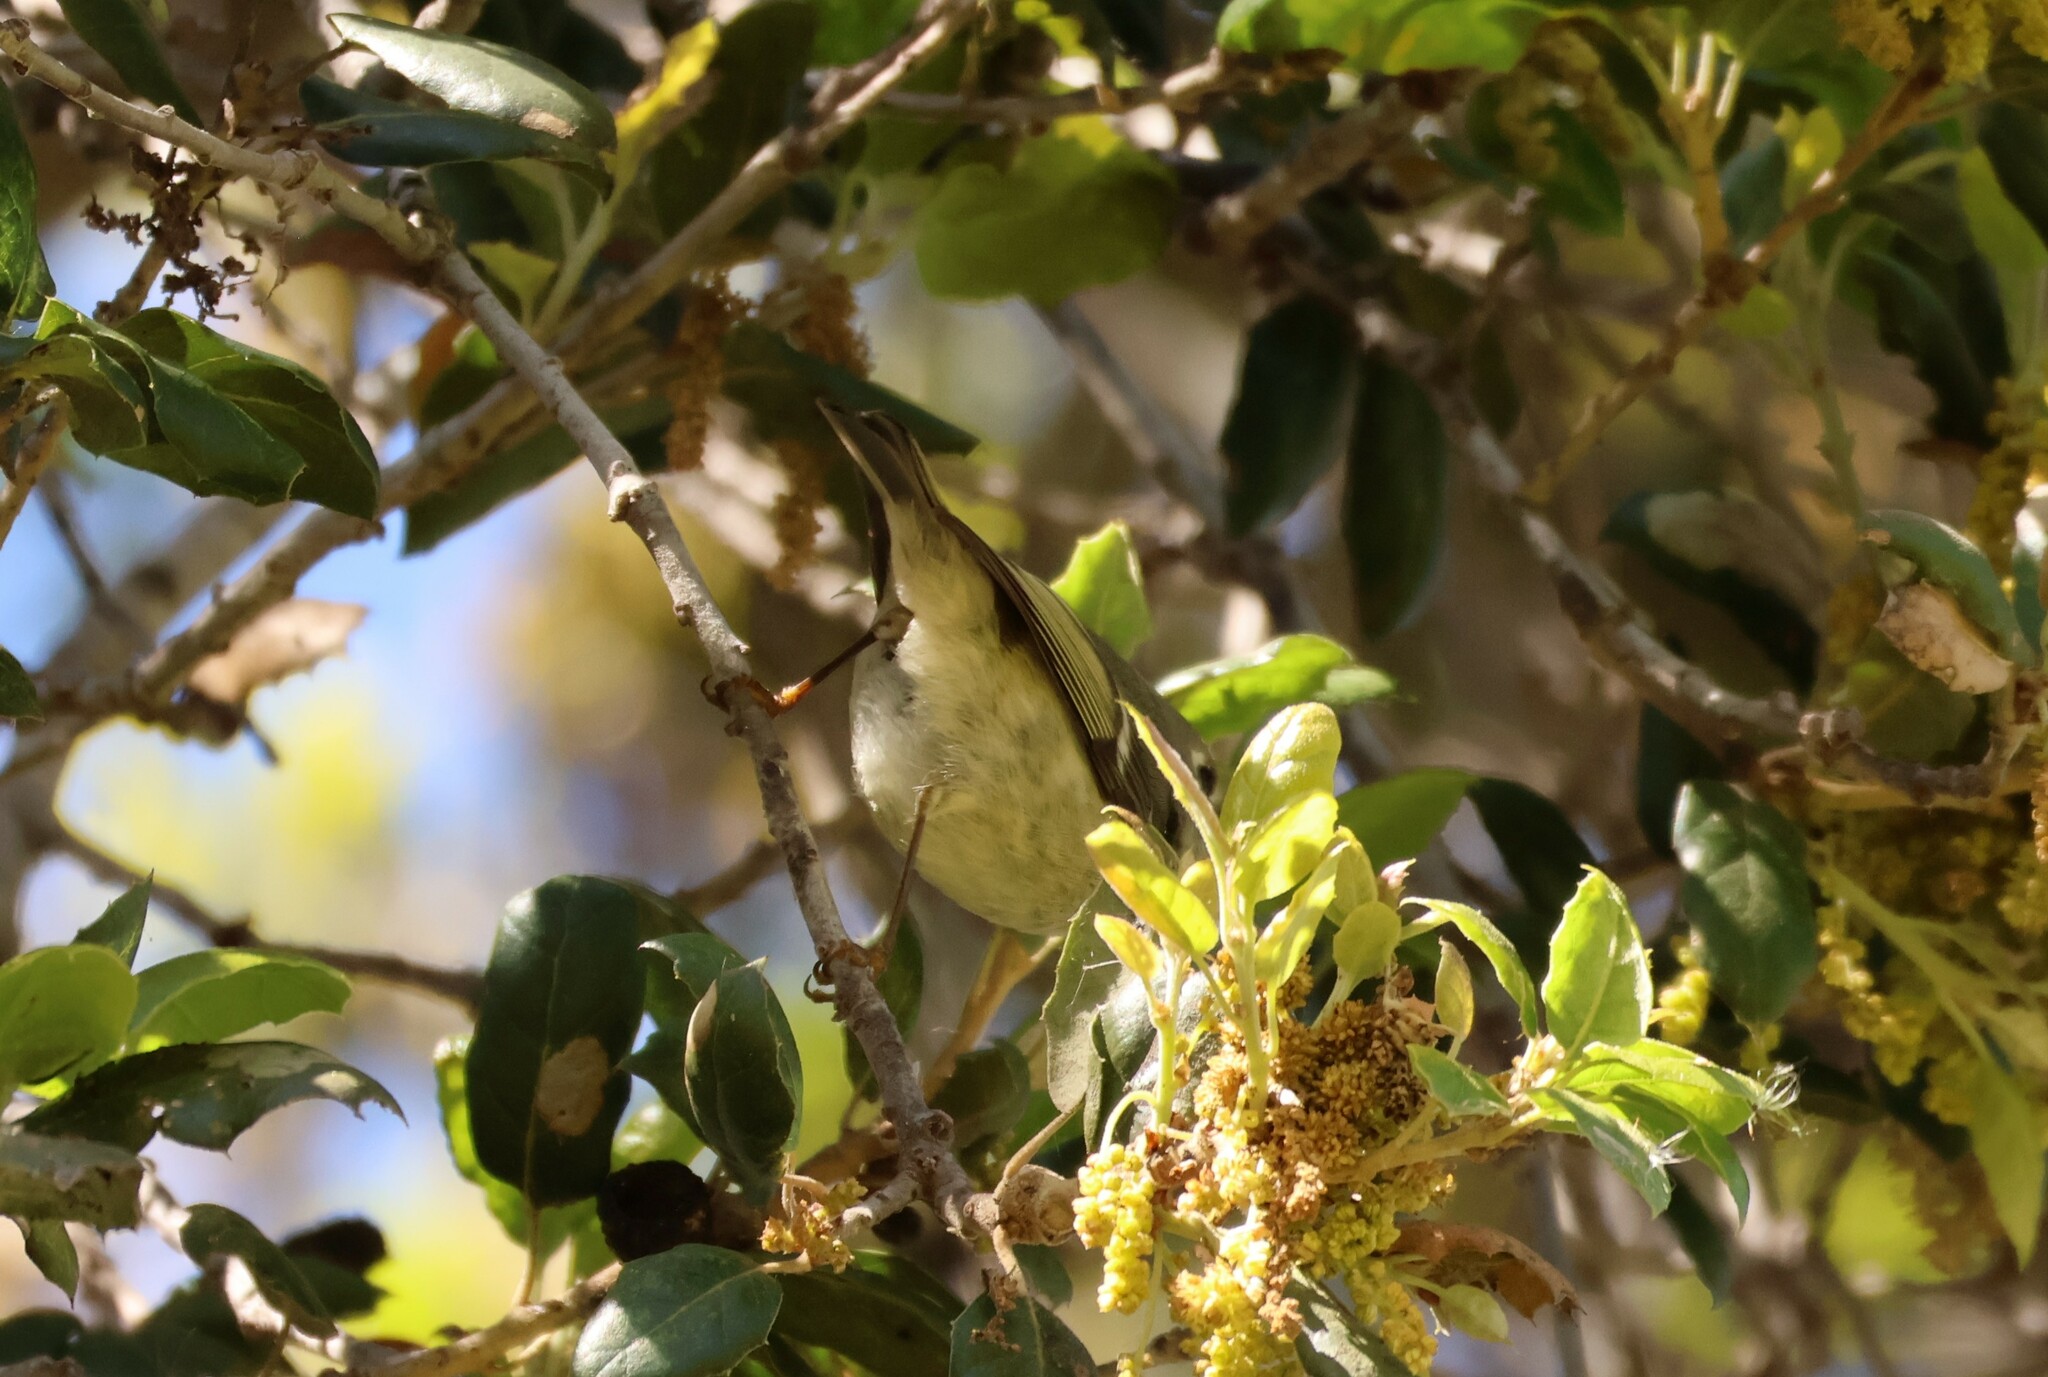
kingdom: Animalia
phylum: Chordata
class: Aves
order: Passeriformes
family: Regulidae
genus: Regulus
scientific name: Regulus calendula
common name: Ruby-crowned kinglet
